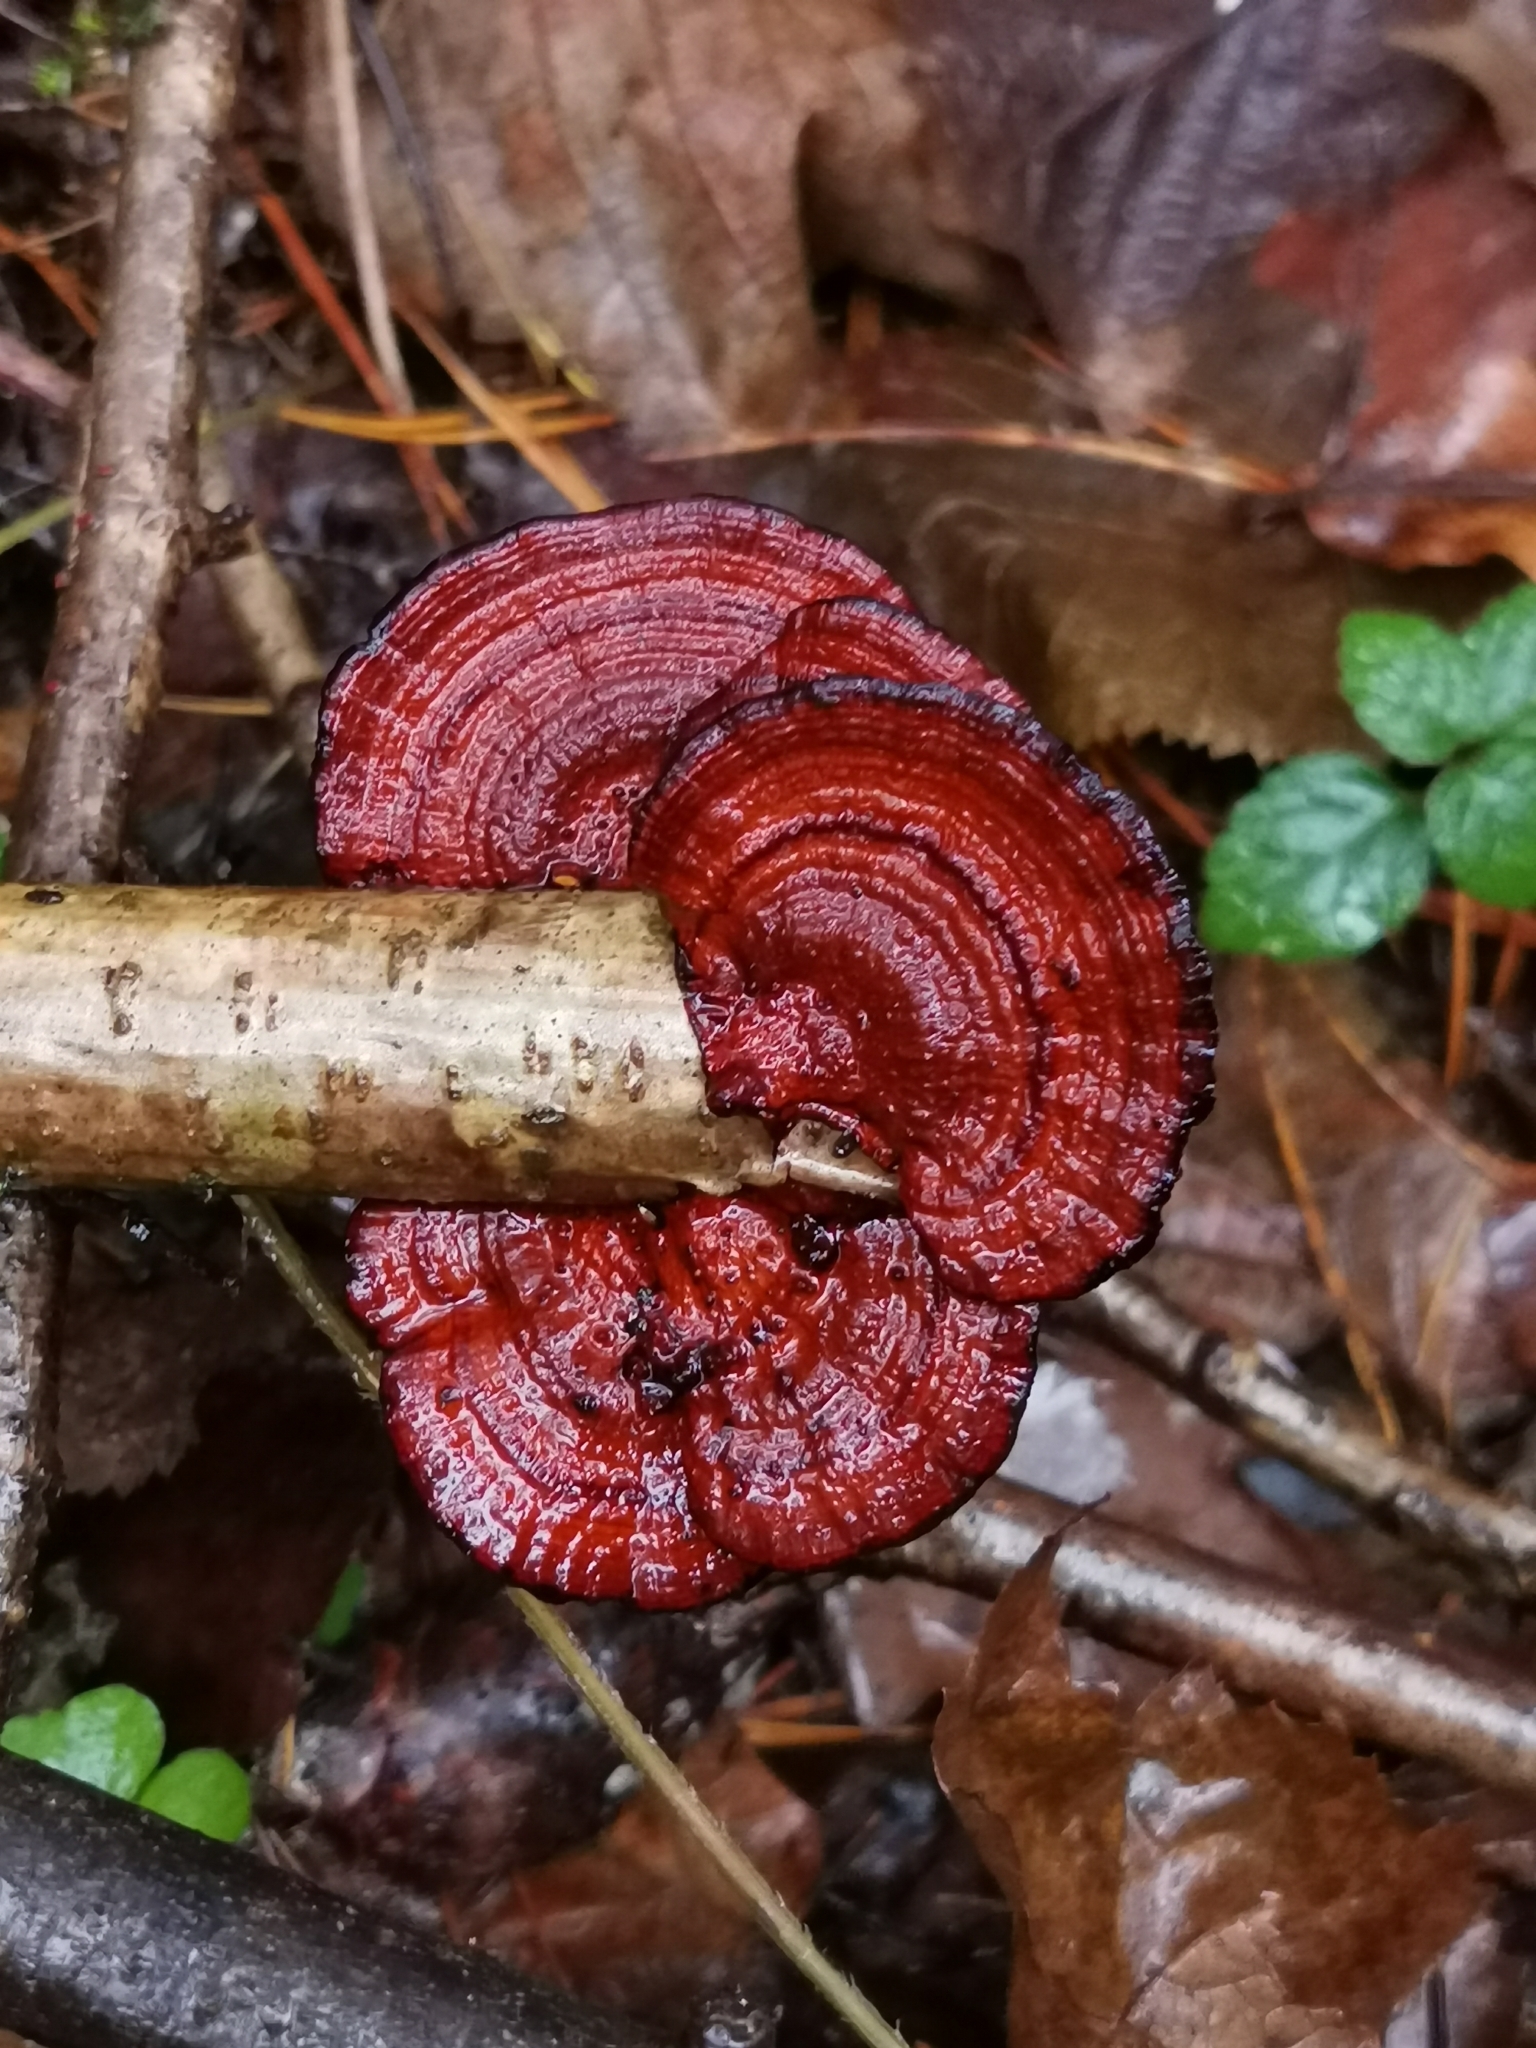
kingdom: Fungi
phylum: Basidiomycota
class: Agaricomycetes
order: Polyporales
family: Polyporaceae
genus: Daedaleopsis
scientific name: Daedaleopsis tricolor
